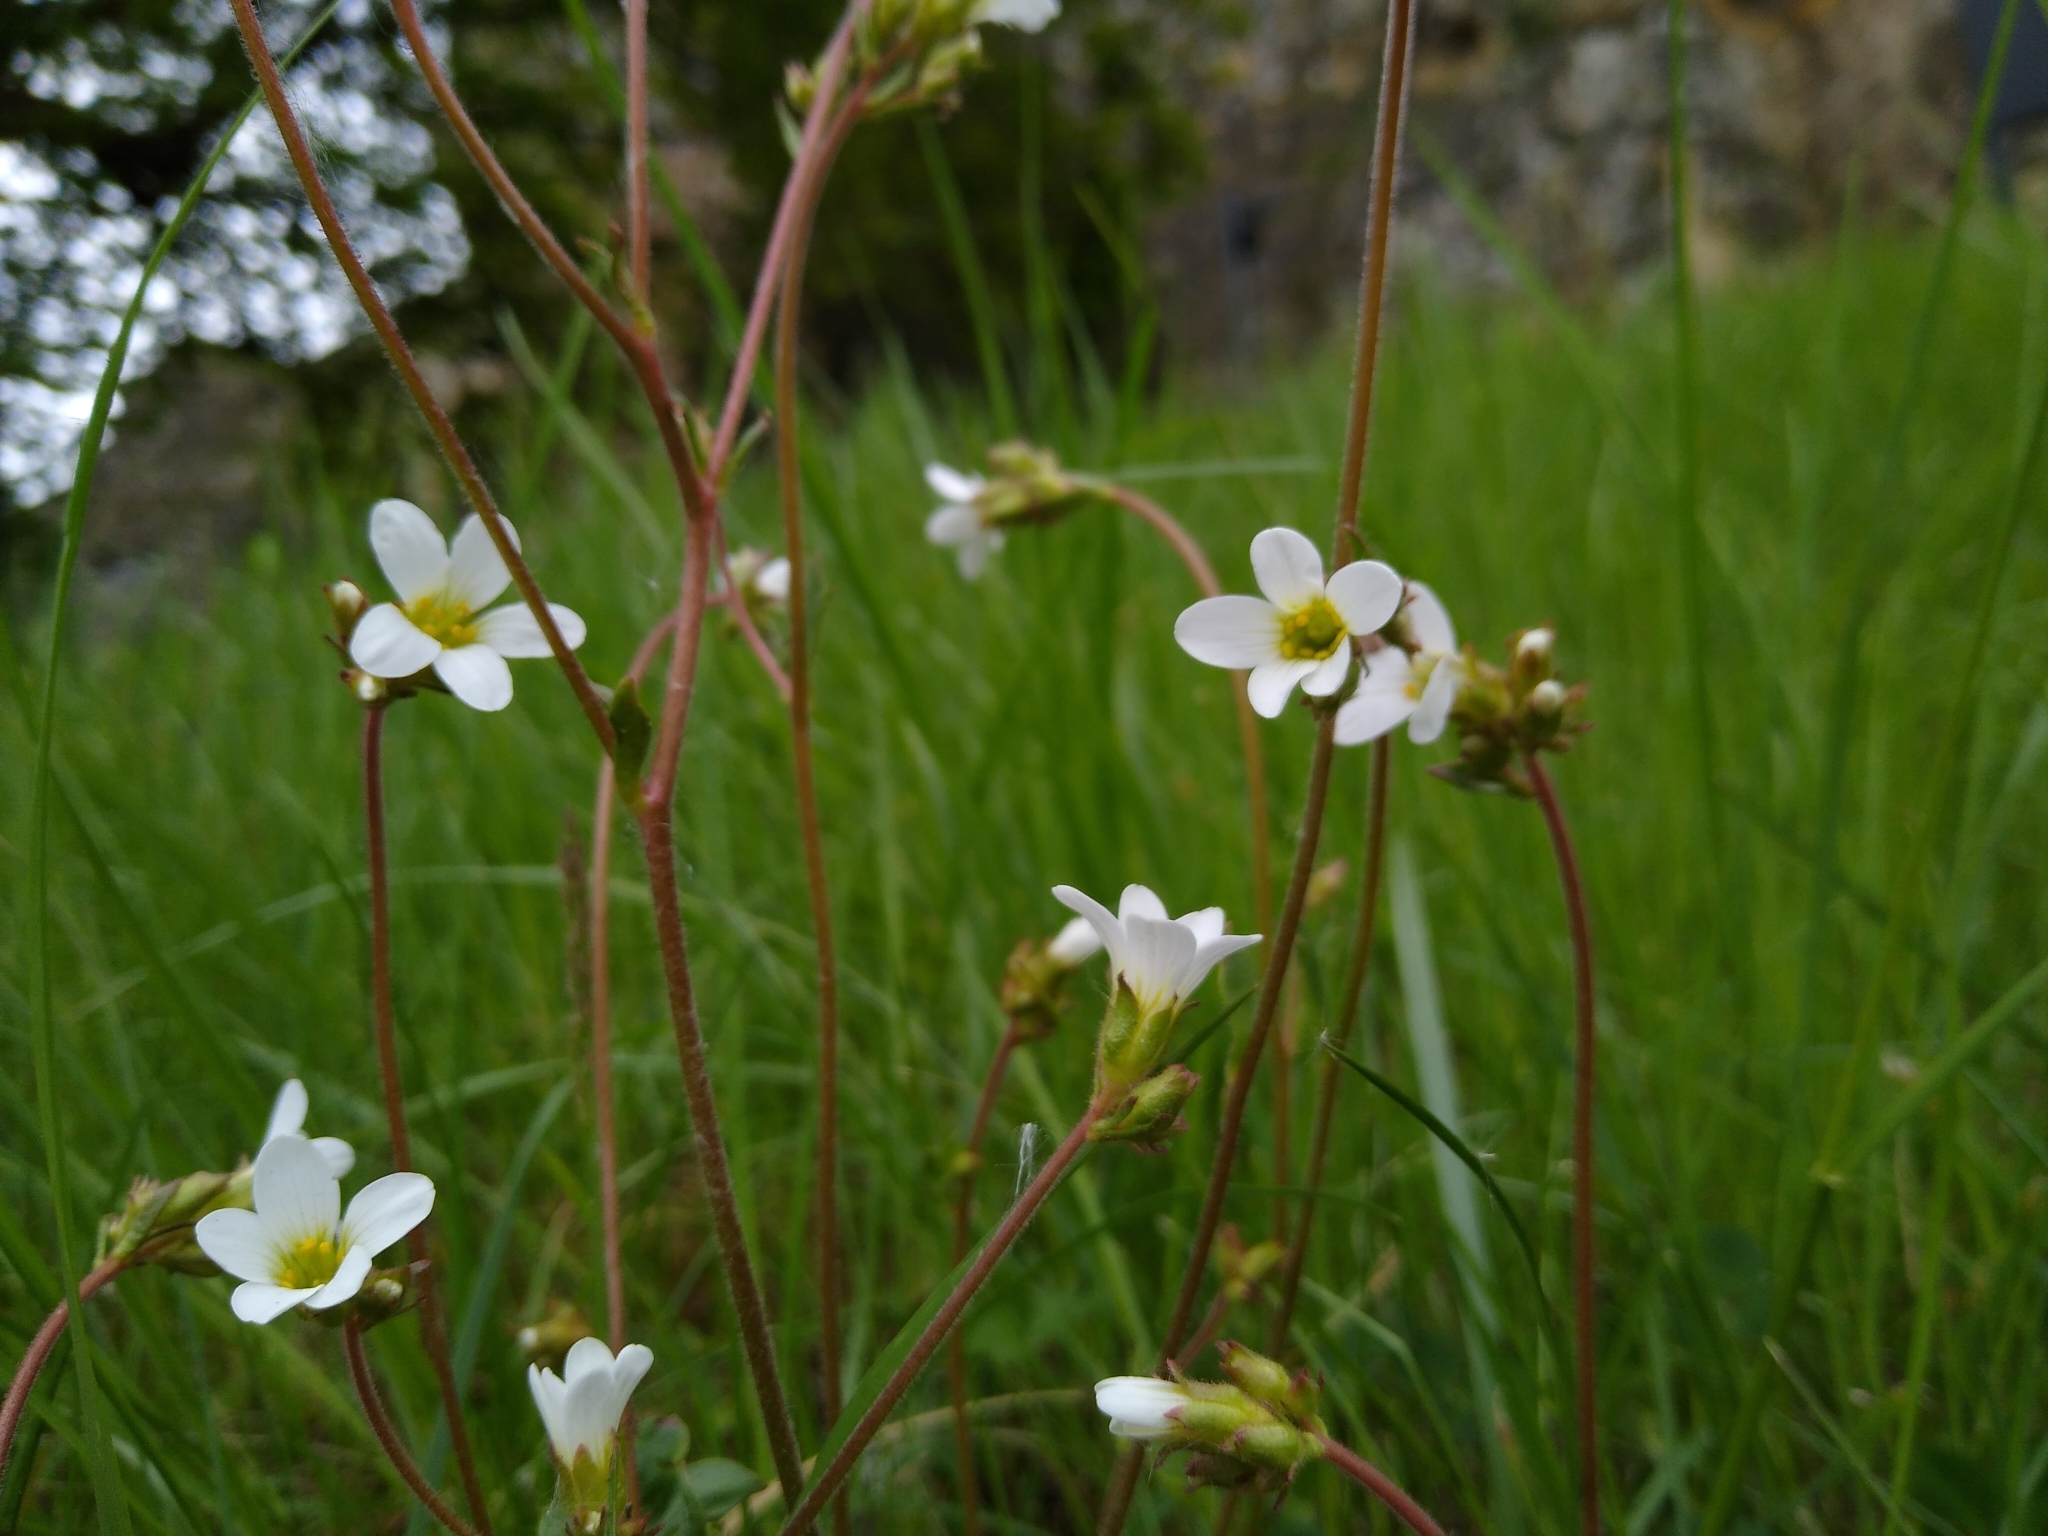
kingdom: Plantae
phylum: Tracheophyta
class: Magnoliopsida
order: Saxifragales
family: Saxifragaceae
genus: Saxifraga
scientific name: Saxifraga granulata
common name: Meadow saxifrage
